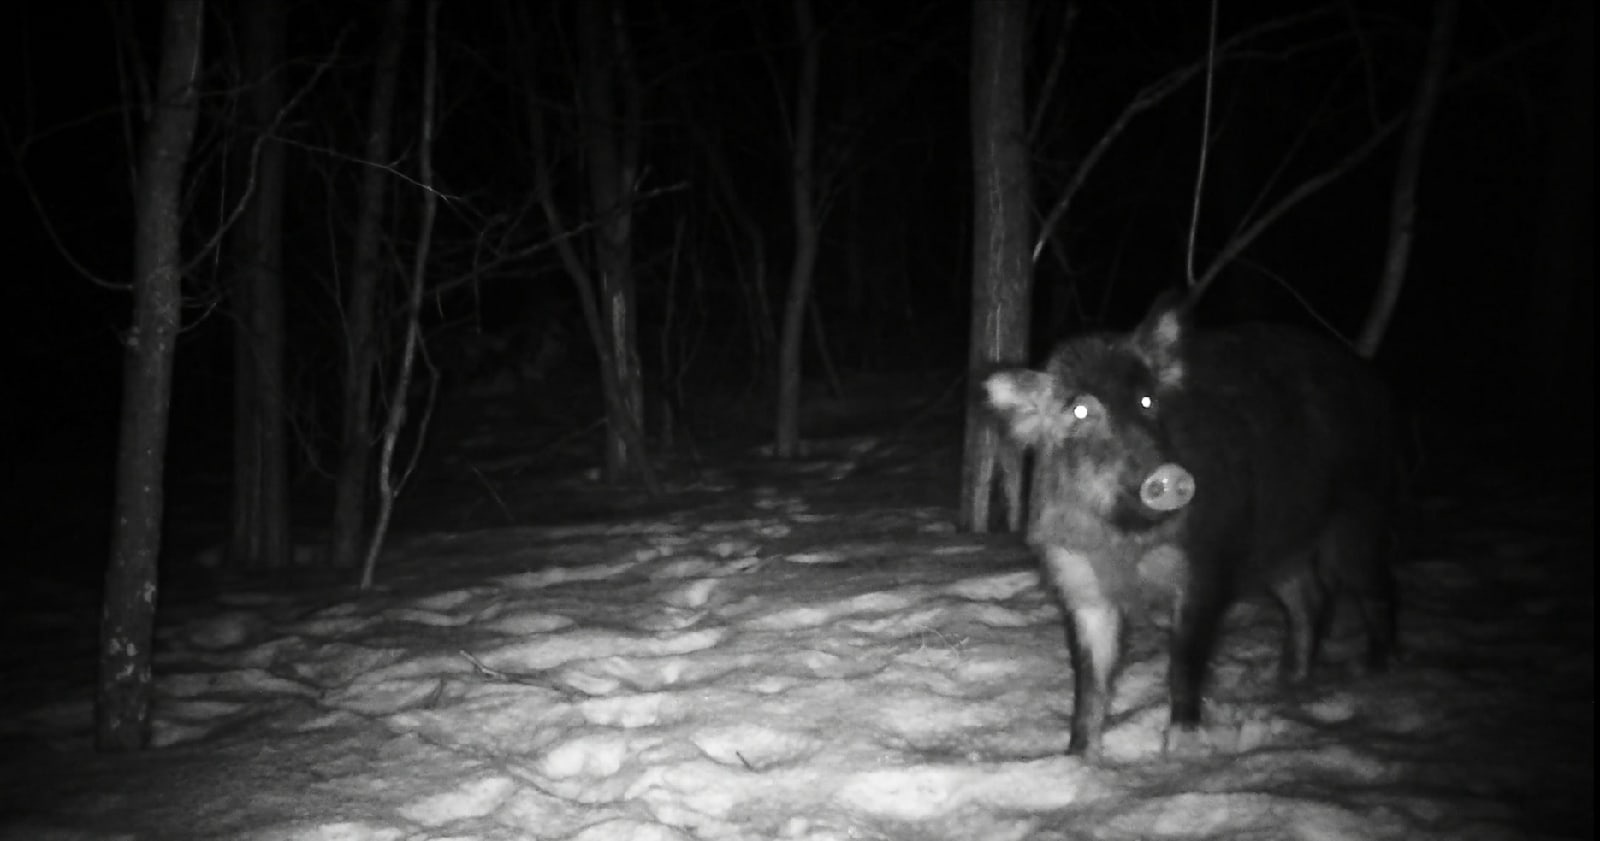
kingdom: Animalia
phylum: Chordata
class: Mammalia
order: Artiodactyla
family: Suidae
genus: Sus
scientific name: Sus scrofa
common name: Wild boar
